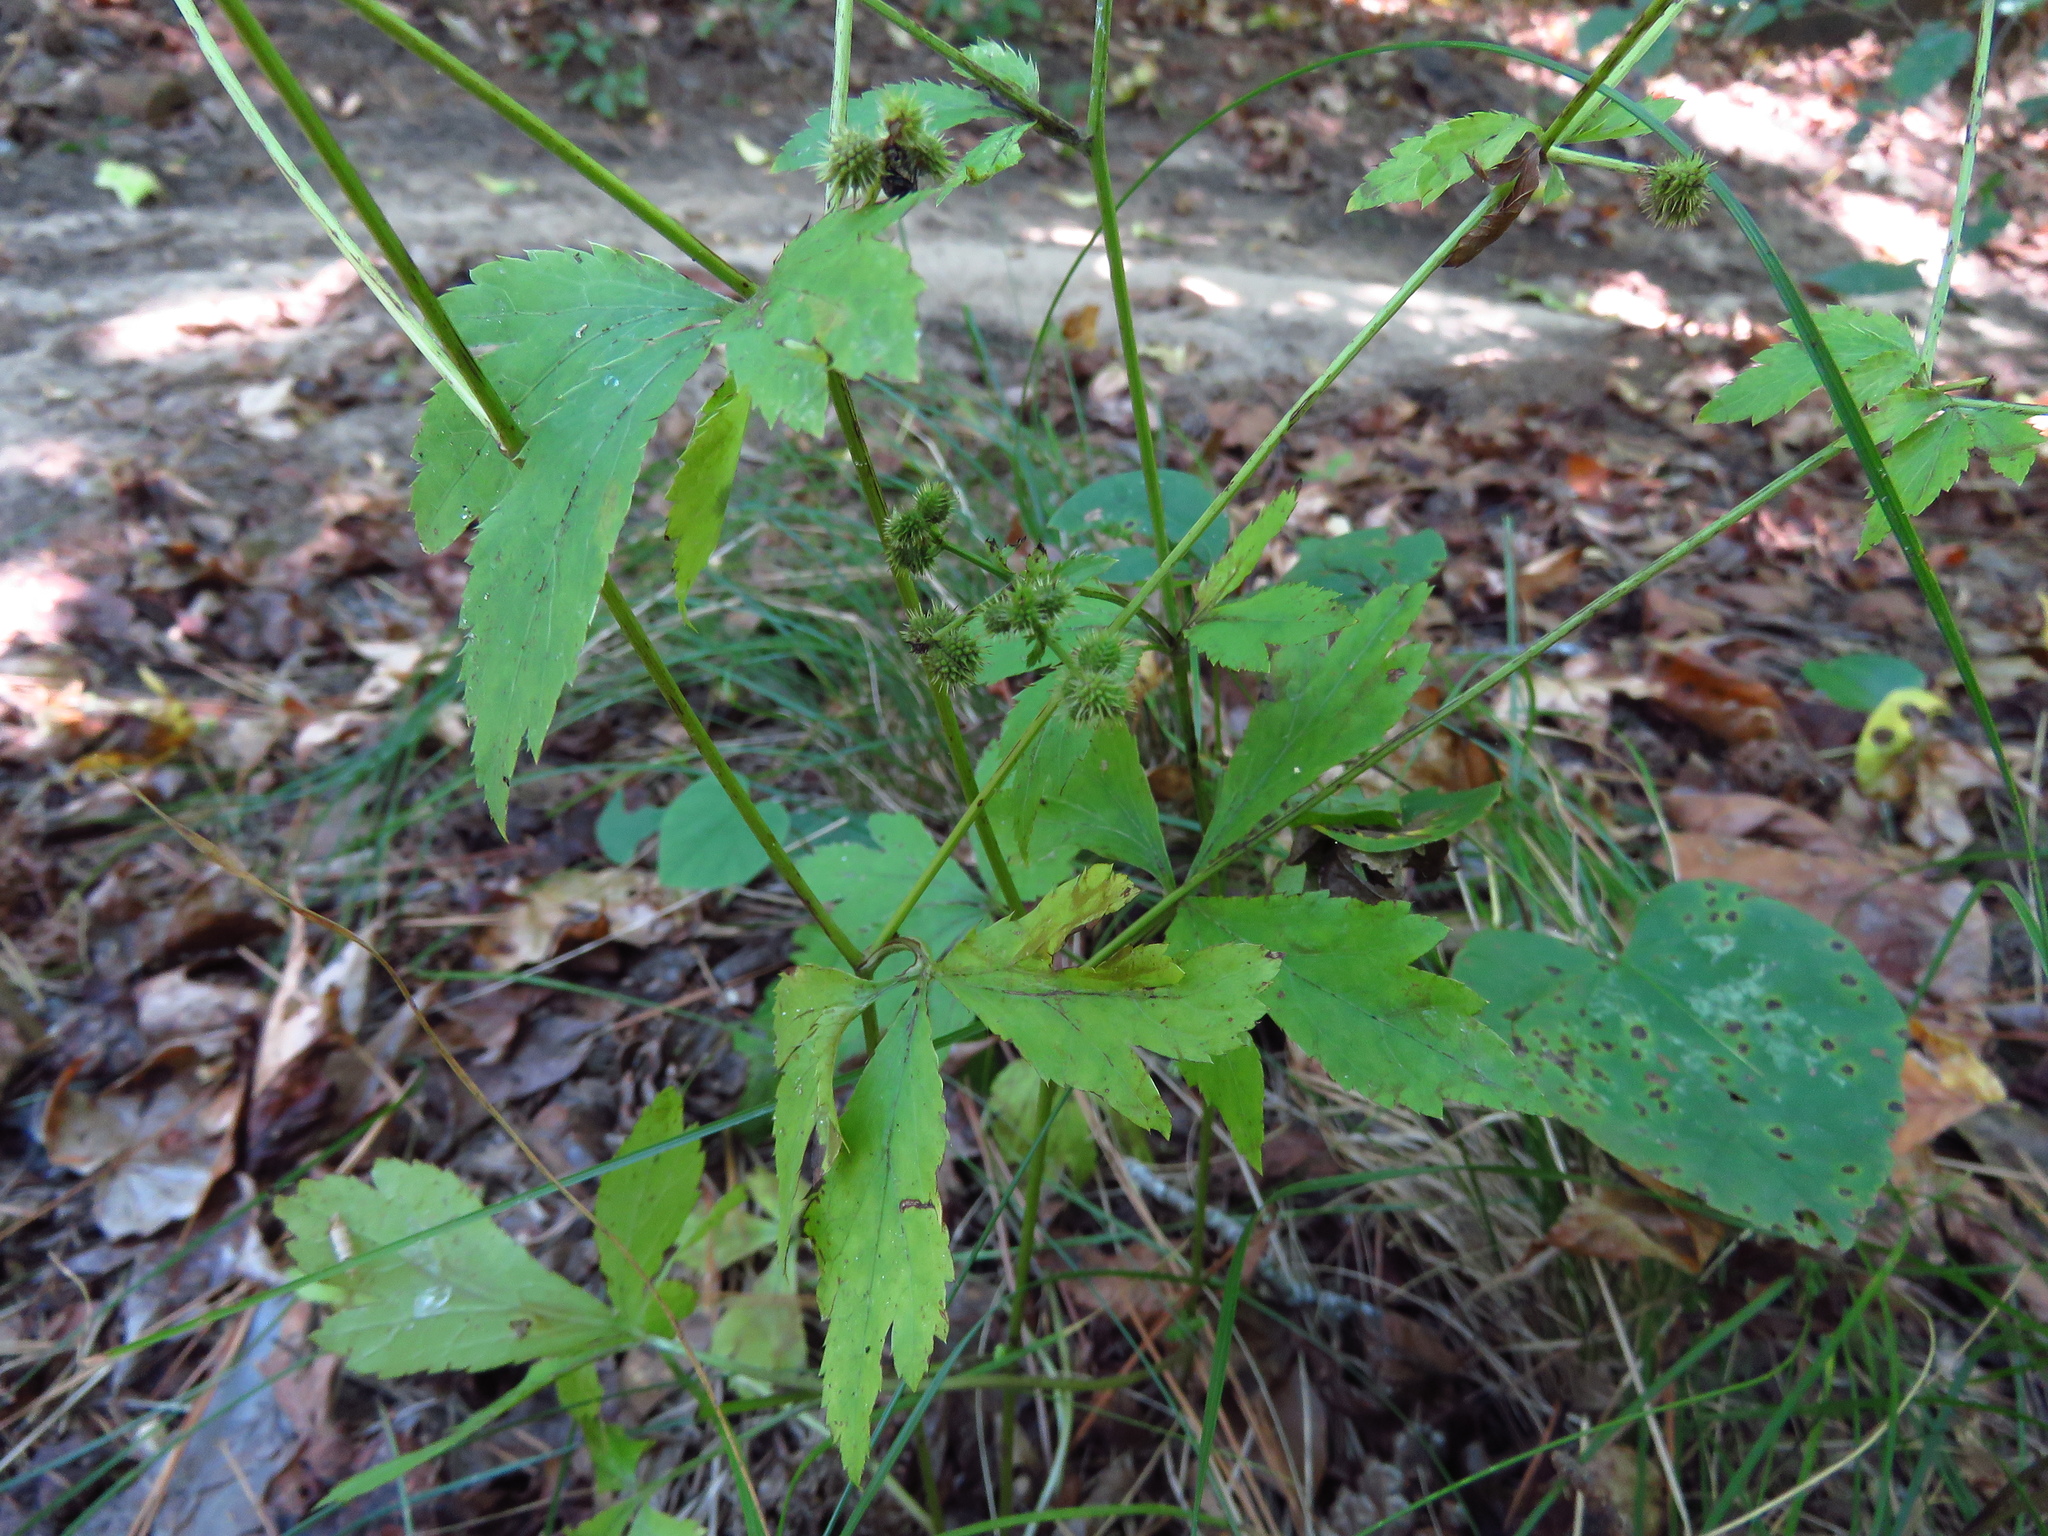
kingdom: Plantae
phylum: Tracheophyta
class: Magnoliopsida
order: Apiales
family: Apiaceae
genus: Sanicula
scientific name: Sanicula canadensis
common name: Canada sanicle
